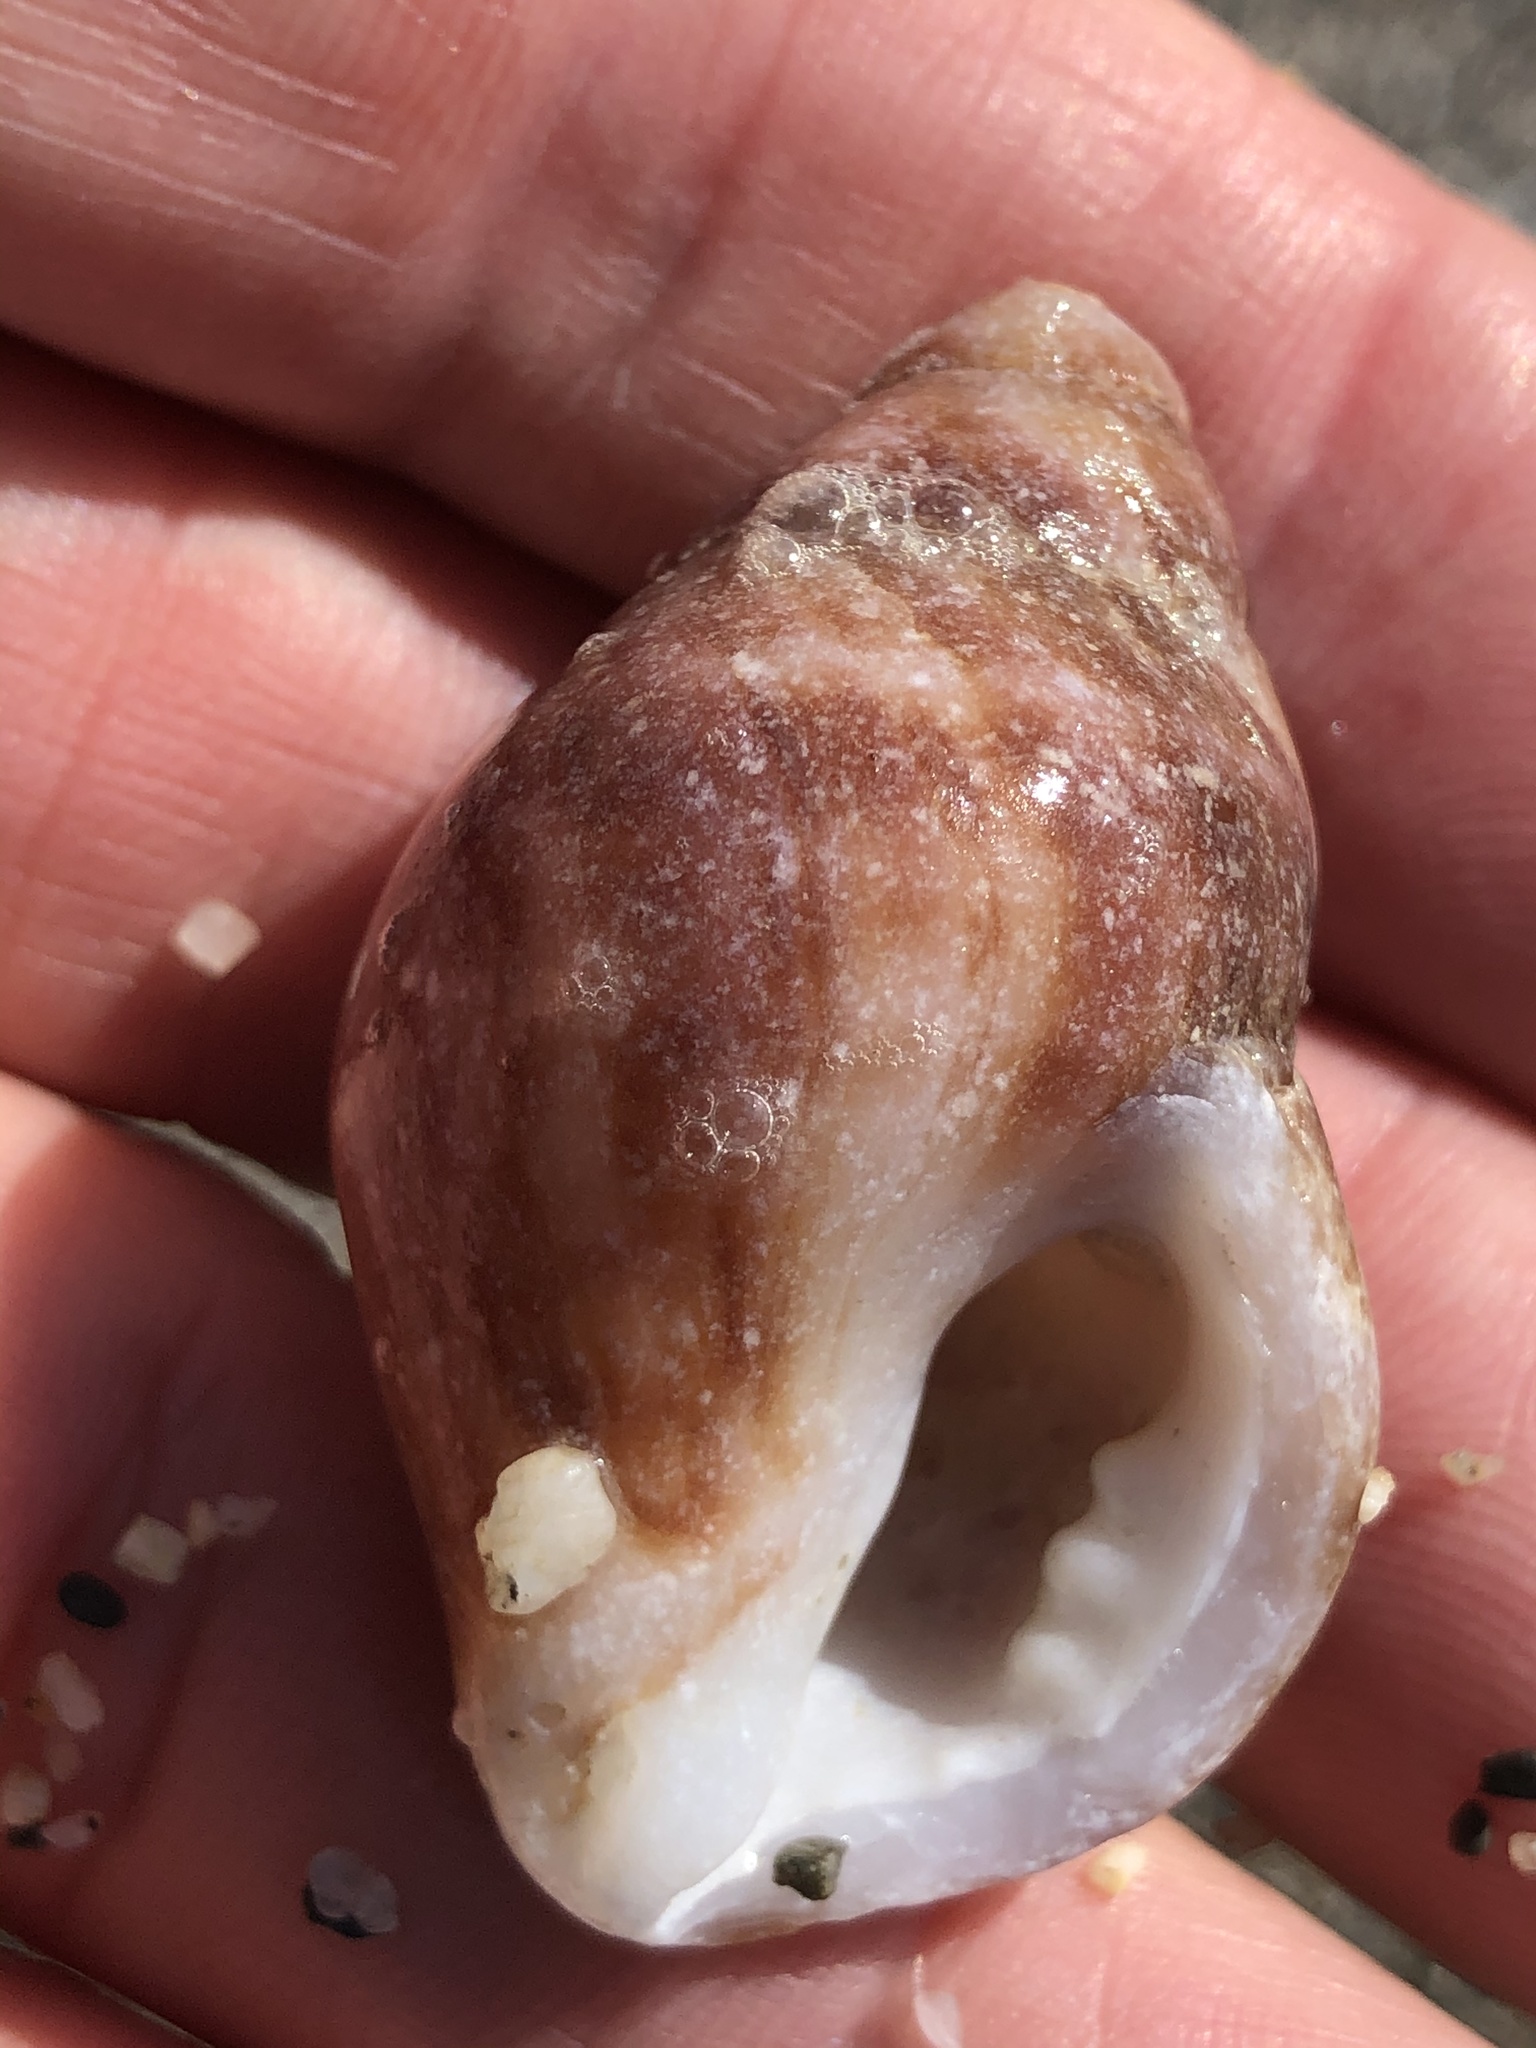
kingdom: Animalia
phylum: Mollusca
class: Gastropoda
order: Neogastropoda
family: Muricidae
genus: Nucella
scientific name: Nucella lamellosa
